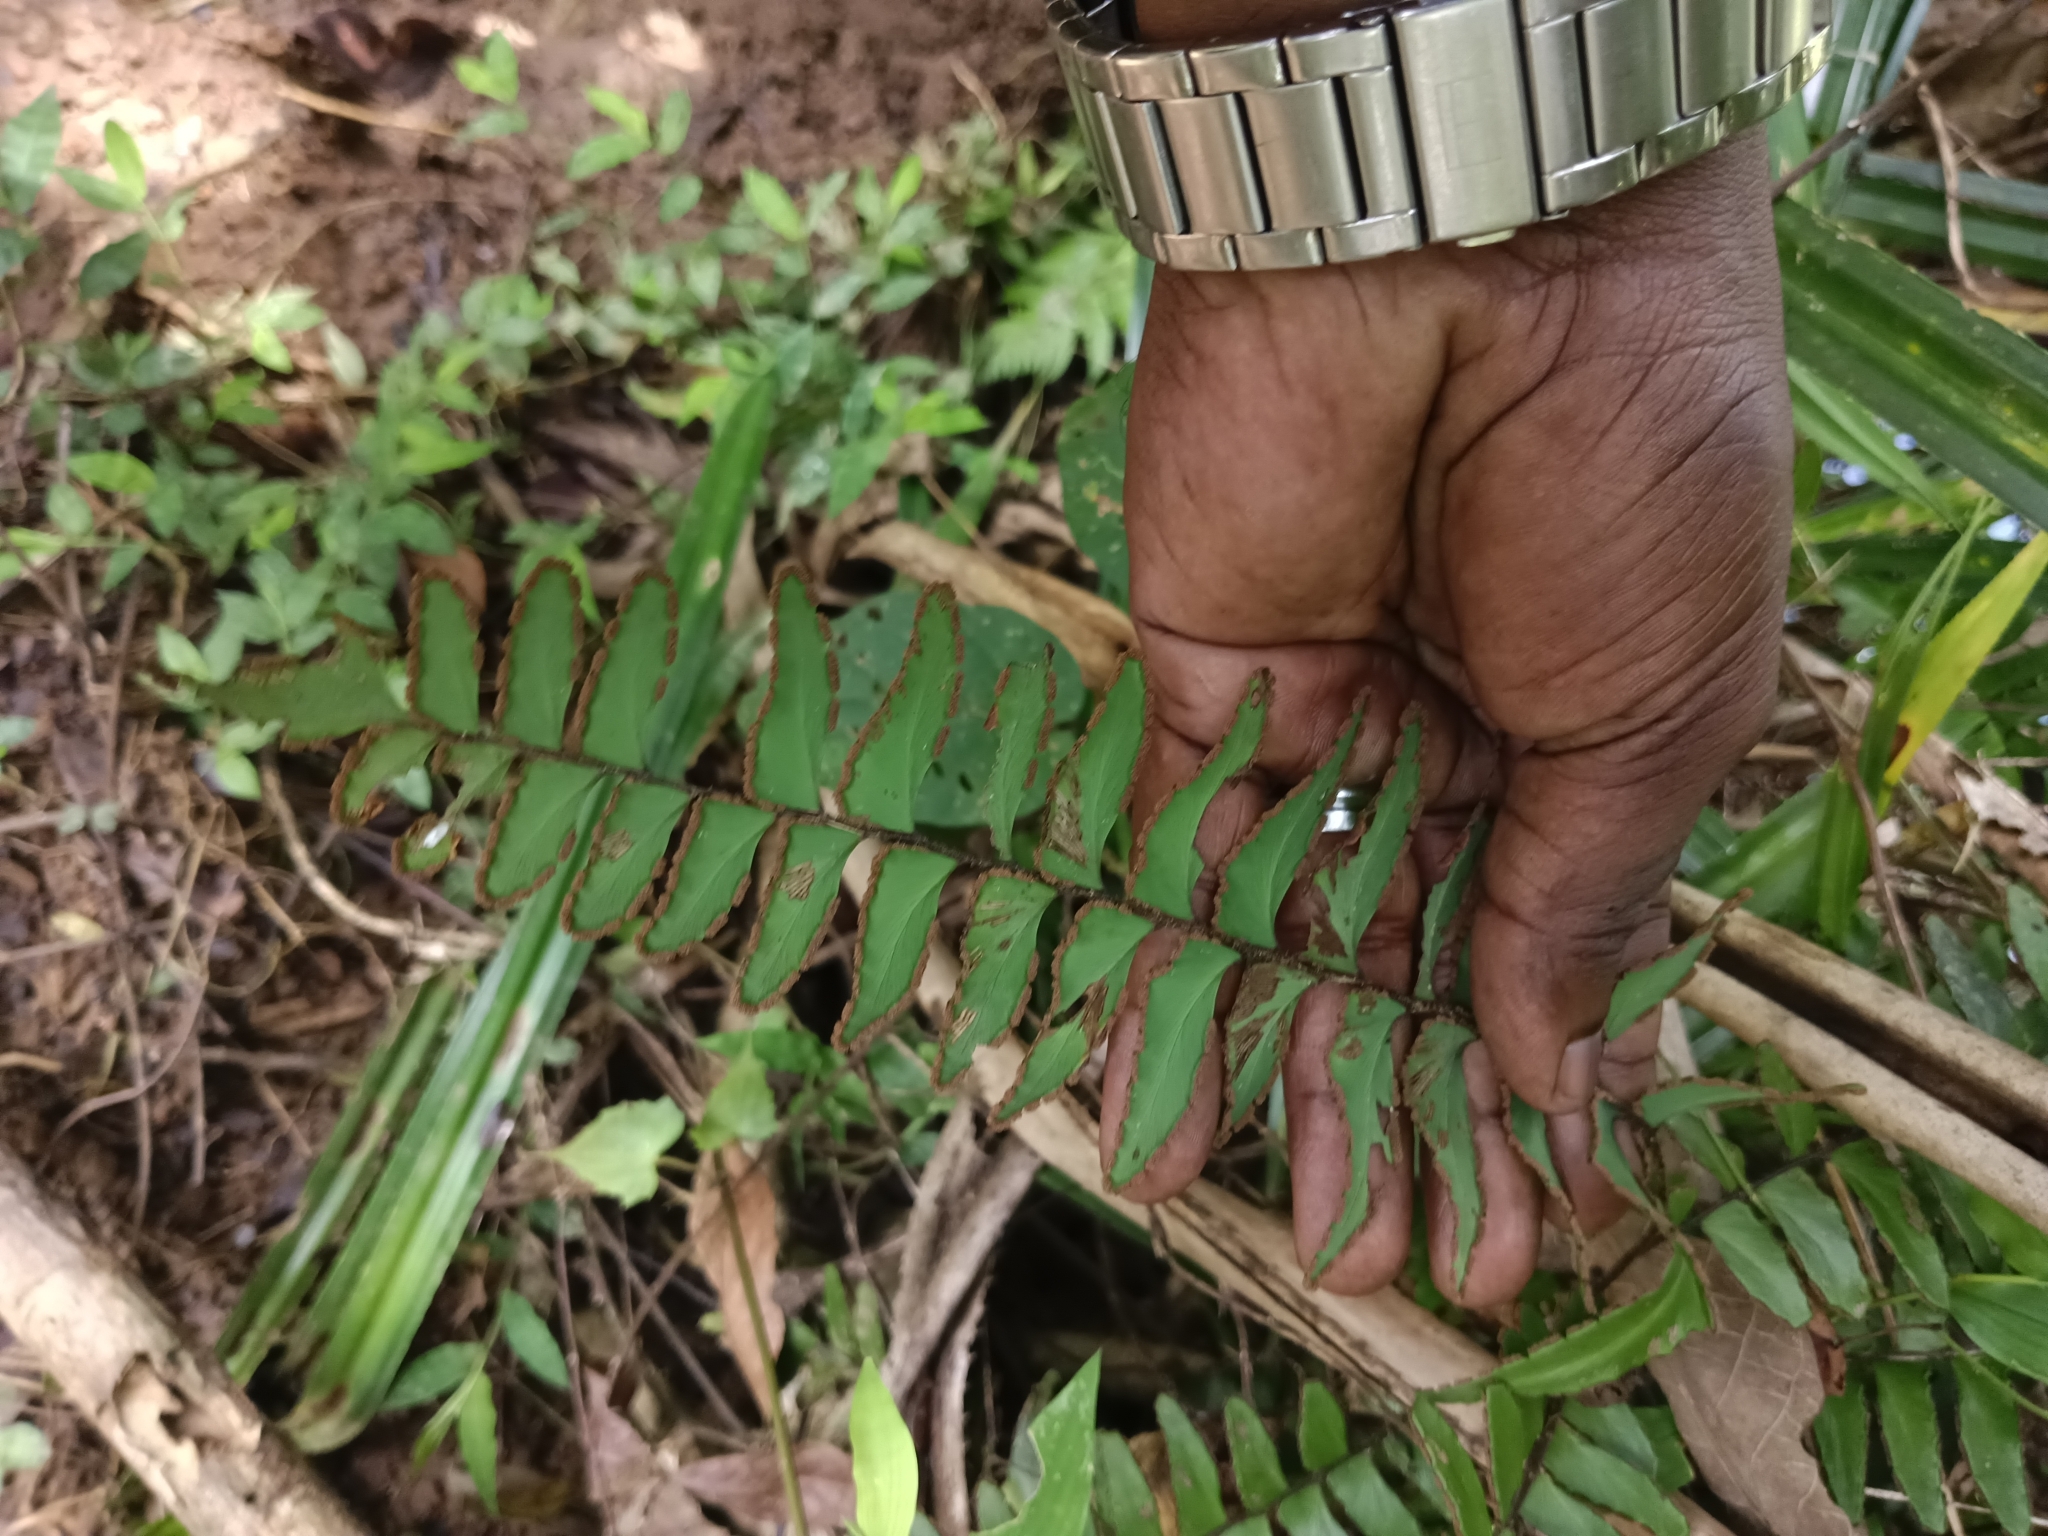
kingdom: Plantae
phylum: Tracheophyta
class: Polypodiopsida
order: Polypodiales
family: Pteridaceae
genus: Adiantum
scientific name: Adiantum latifolium
